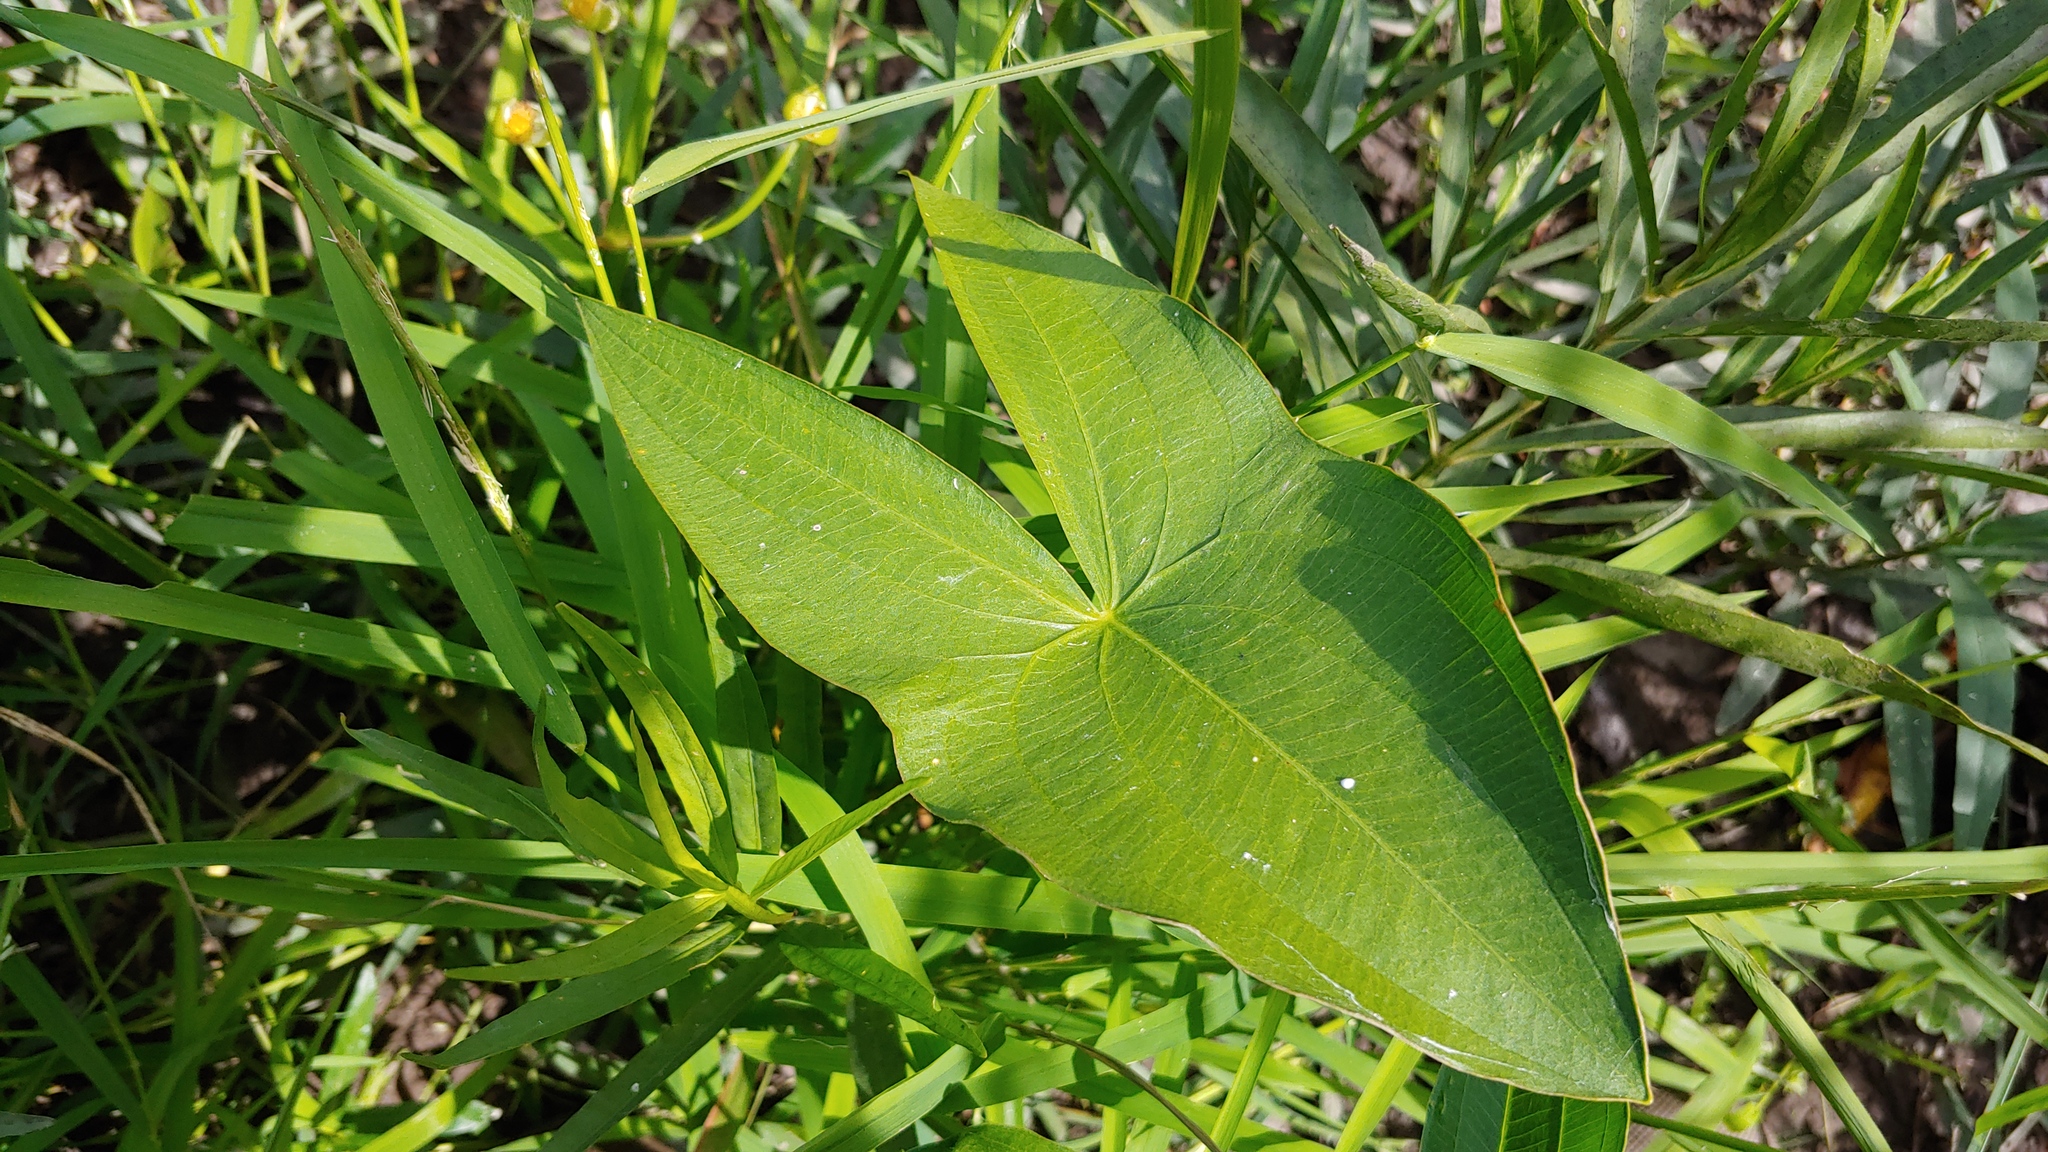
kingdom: Plantae
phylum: Tracheophyta
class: Liliopsida
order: Alismatales
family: Alismataceae
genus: Sagittaria
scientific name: Sagittaria latifolia
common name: Duck-potato
